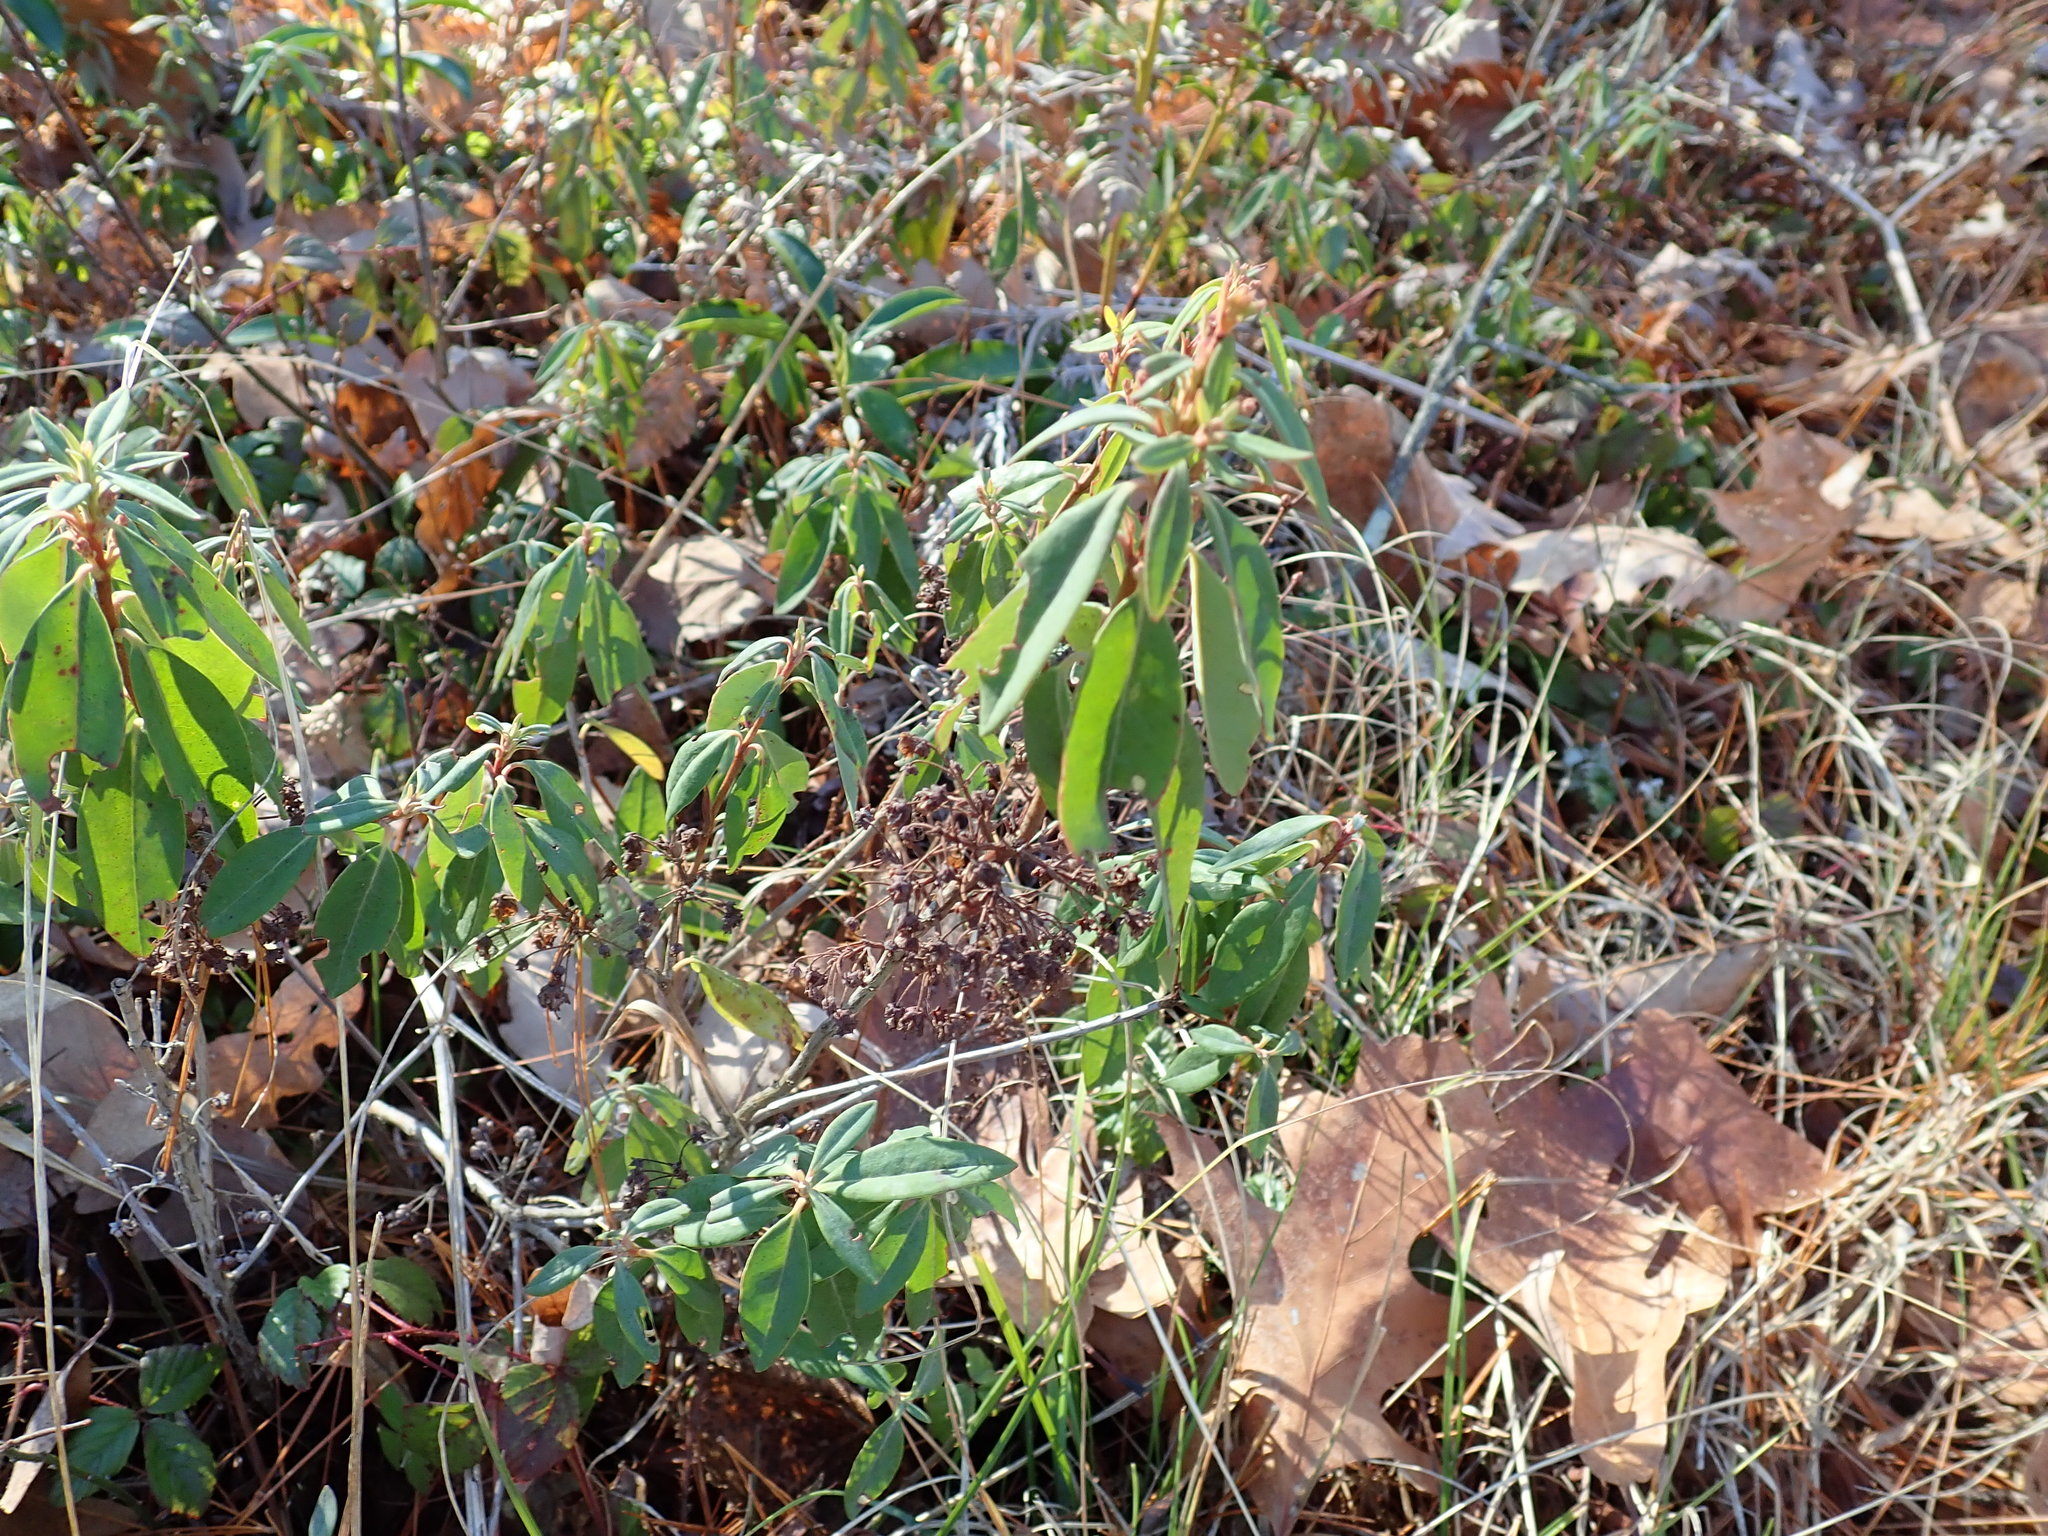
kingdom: Plantae
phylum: Tracheophyta
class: Magnoliopsida
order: Ericales
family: Ericaceae
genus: Kalmia
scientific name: Kalmia angustifolia
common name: Sheep-laurel
